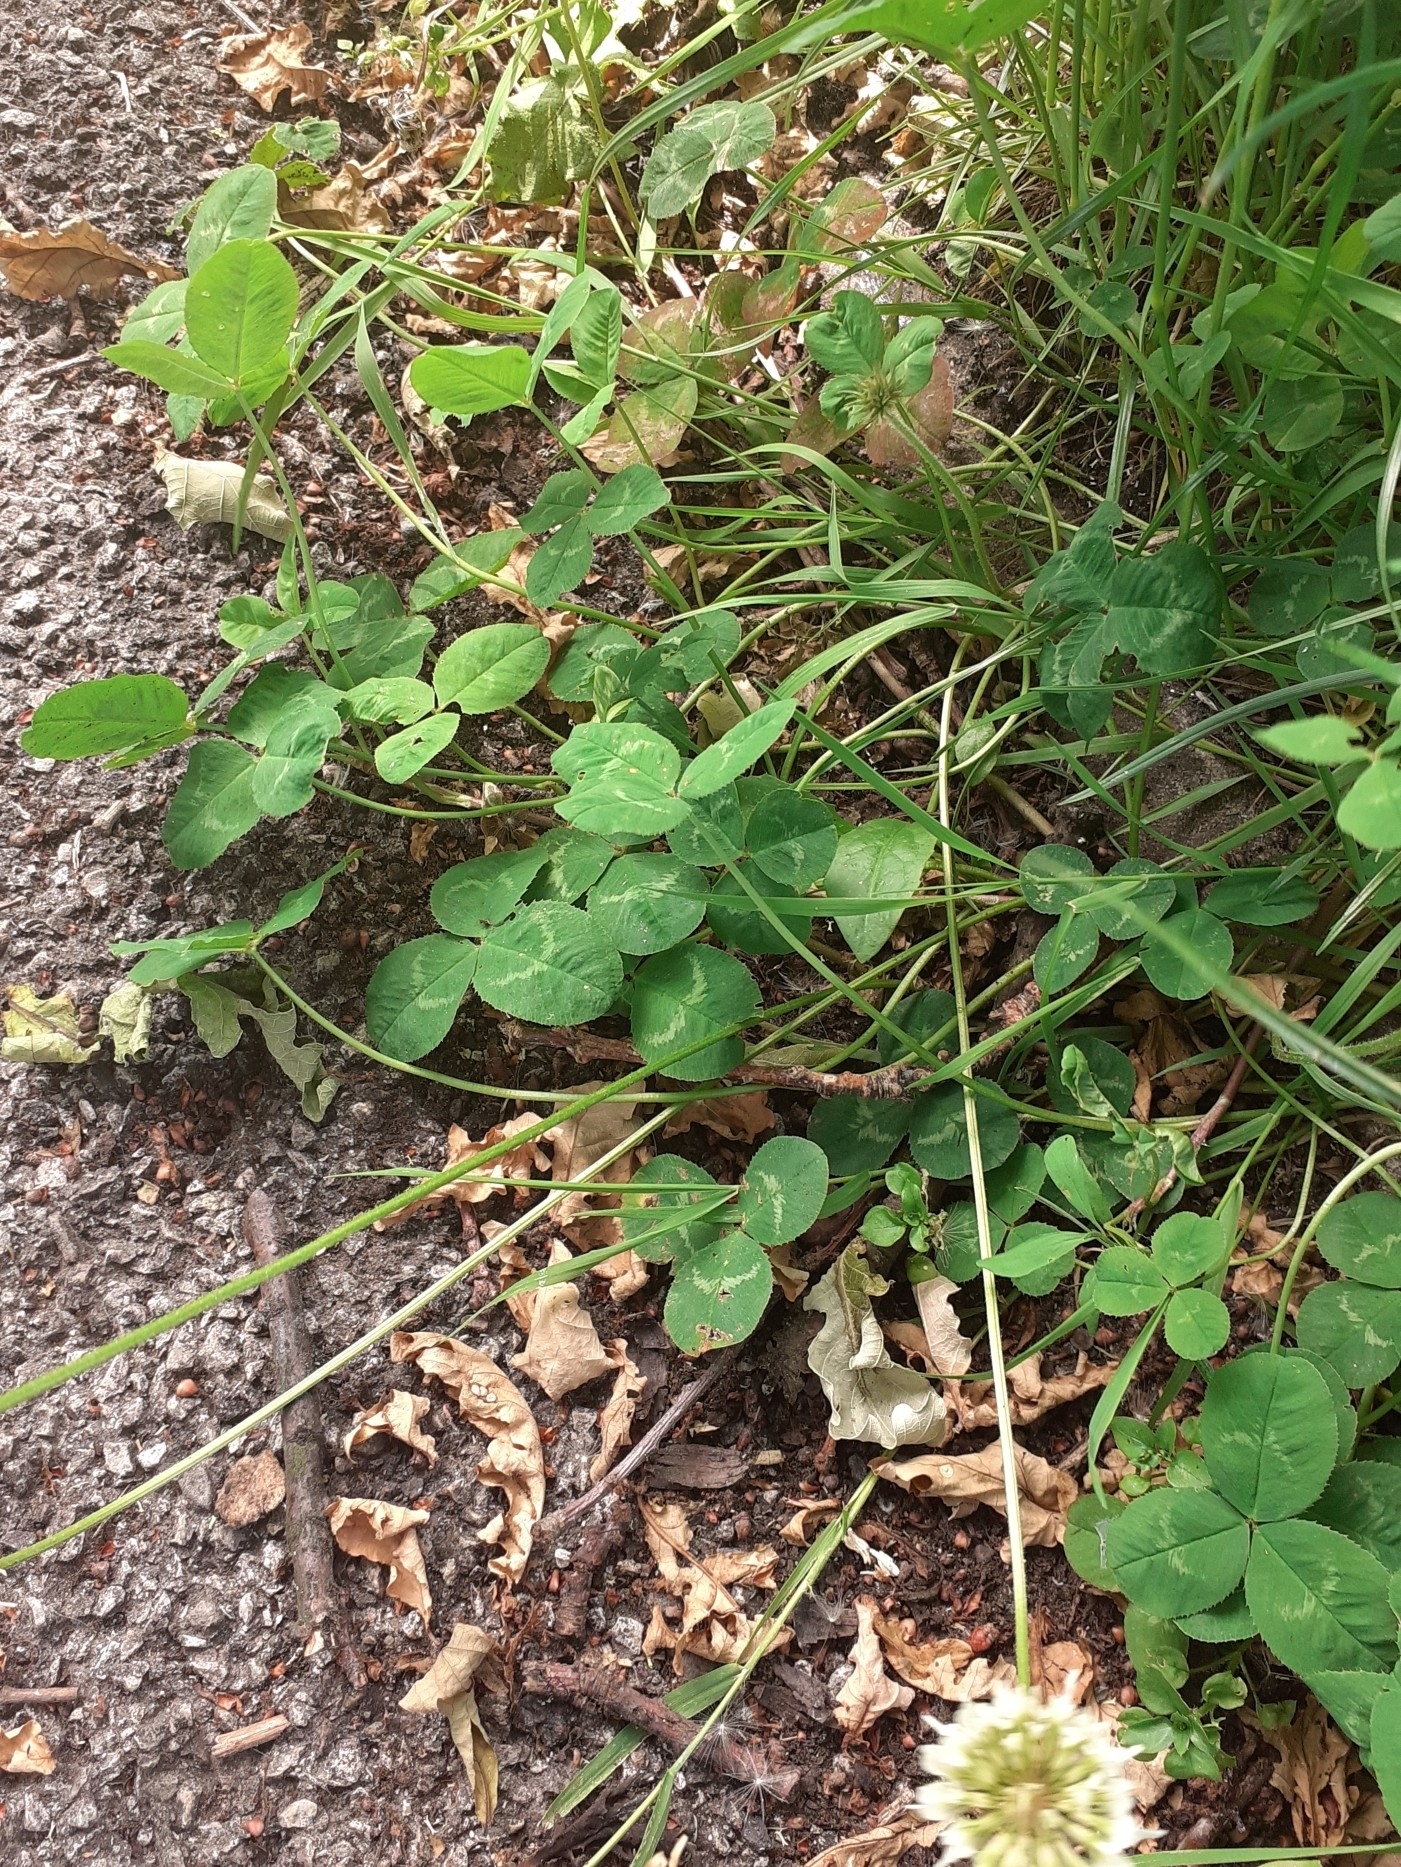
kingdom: Plantae
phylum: Tracheophyta
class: Magnoliopsida
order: Fabales
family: Fabaceae
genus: Trifolium
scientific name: Trifolium repens
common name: White clover
